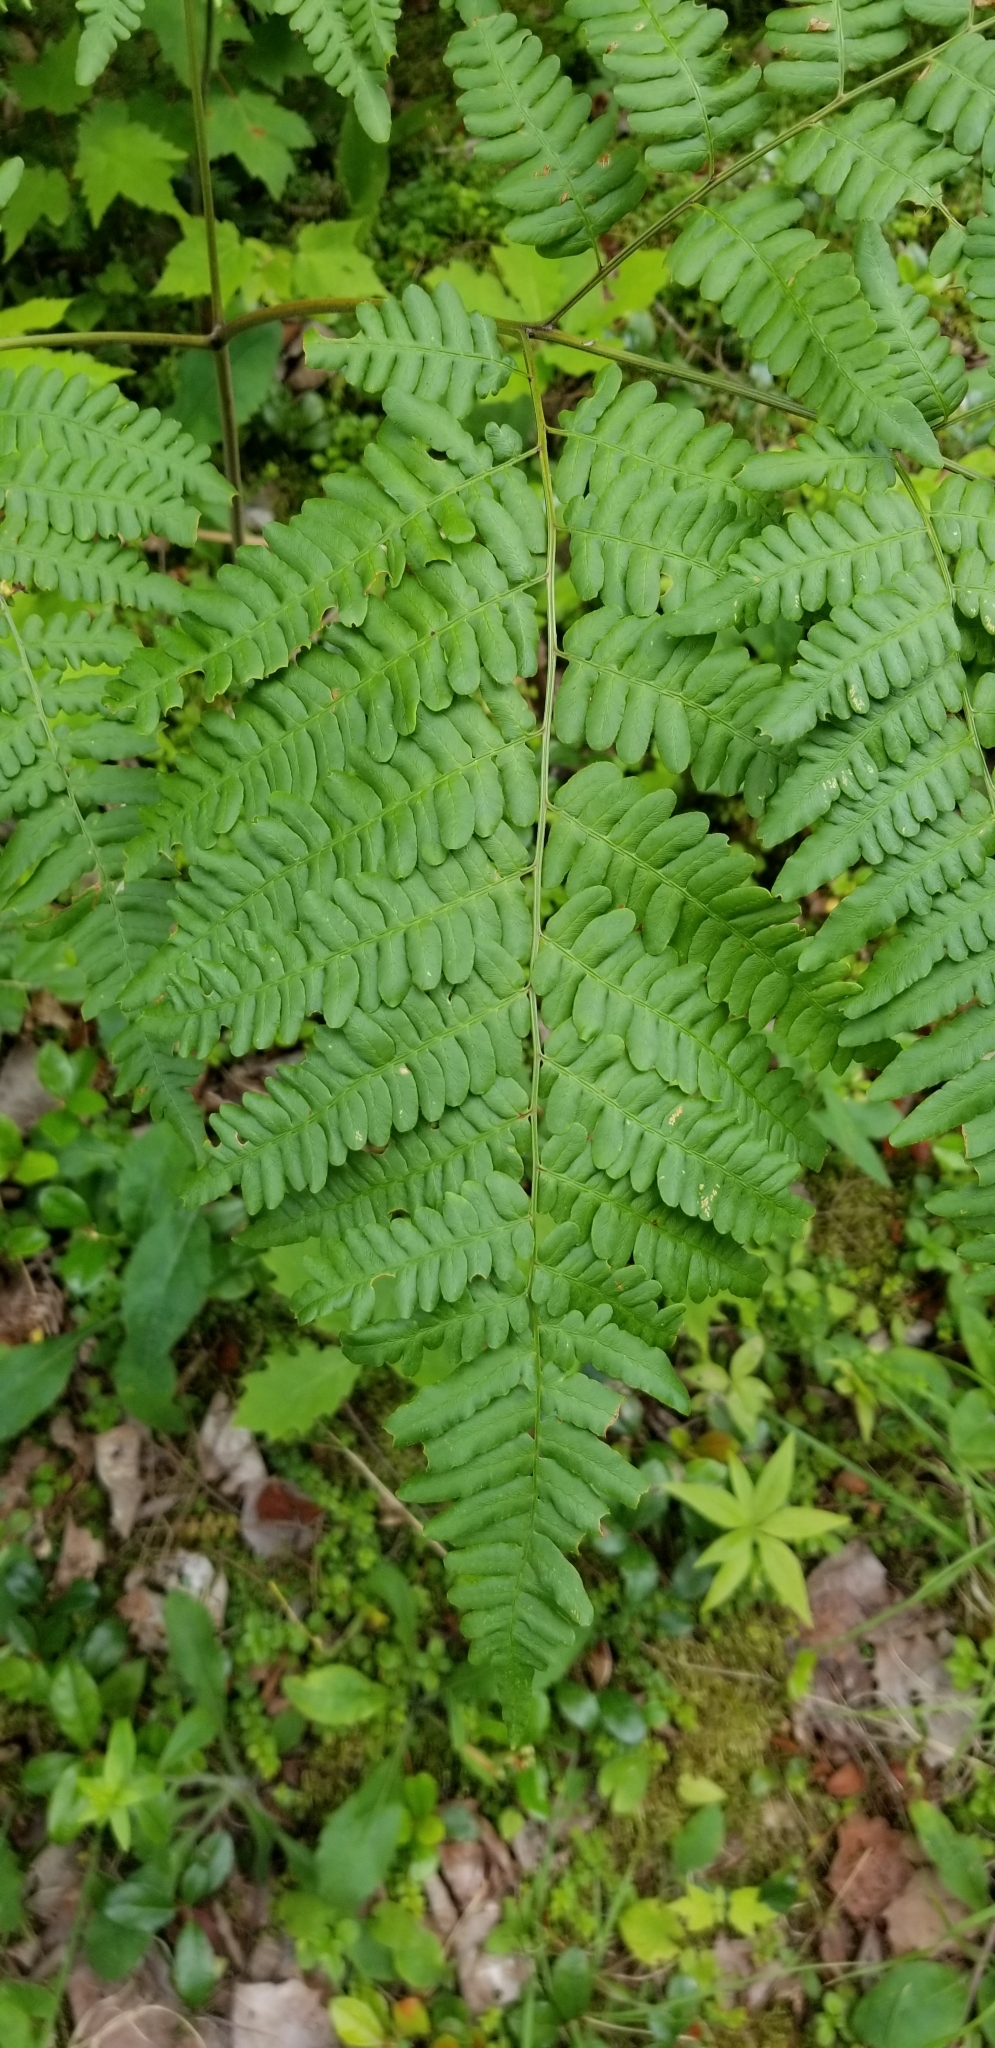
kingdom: Plantae
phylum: Tracheophyta
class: Polypodiopsida
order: Polypodiales
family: Dennstaedtiaceae
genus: Pteridium
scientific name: Pteridium aquilinum
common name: Bracken
